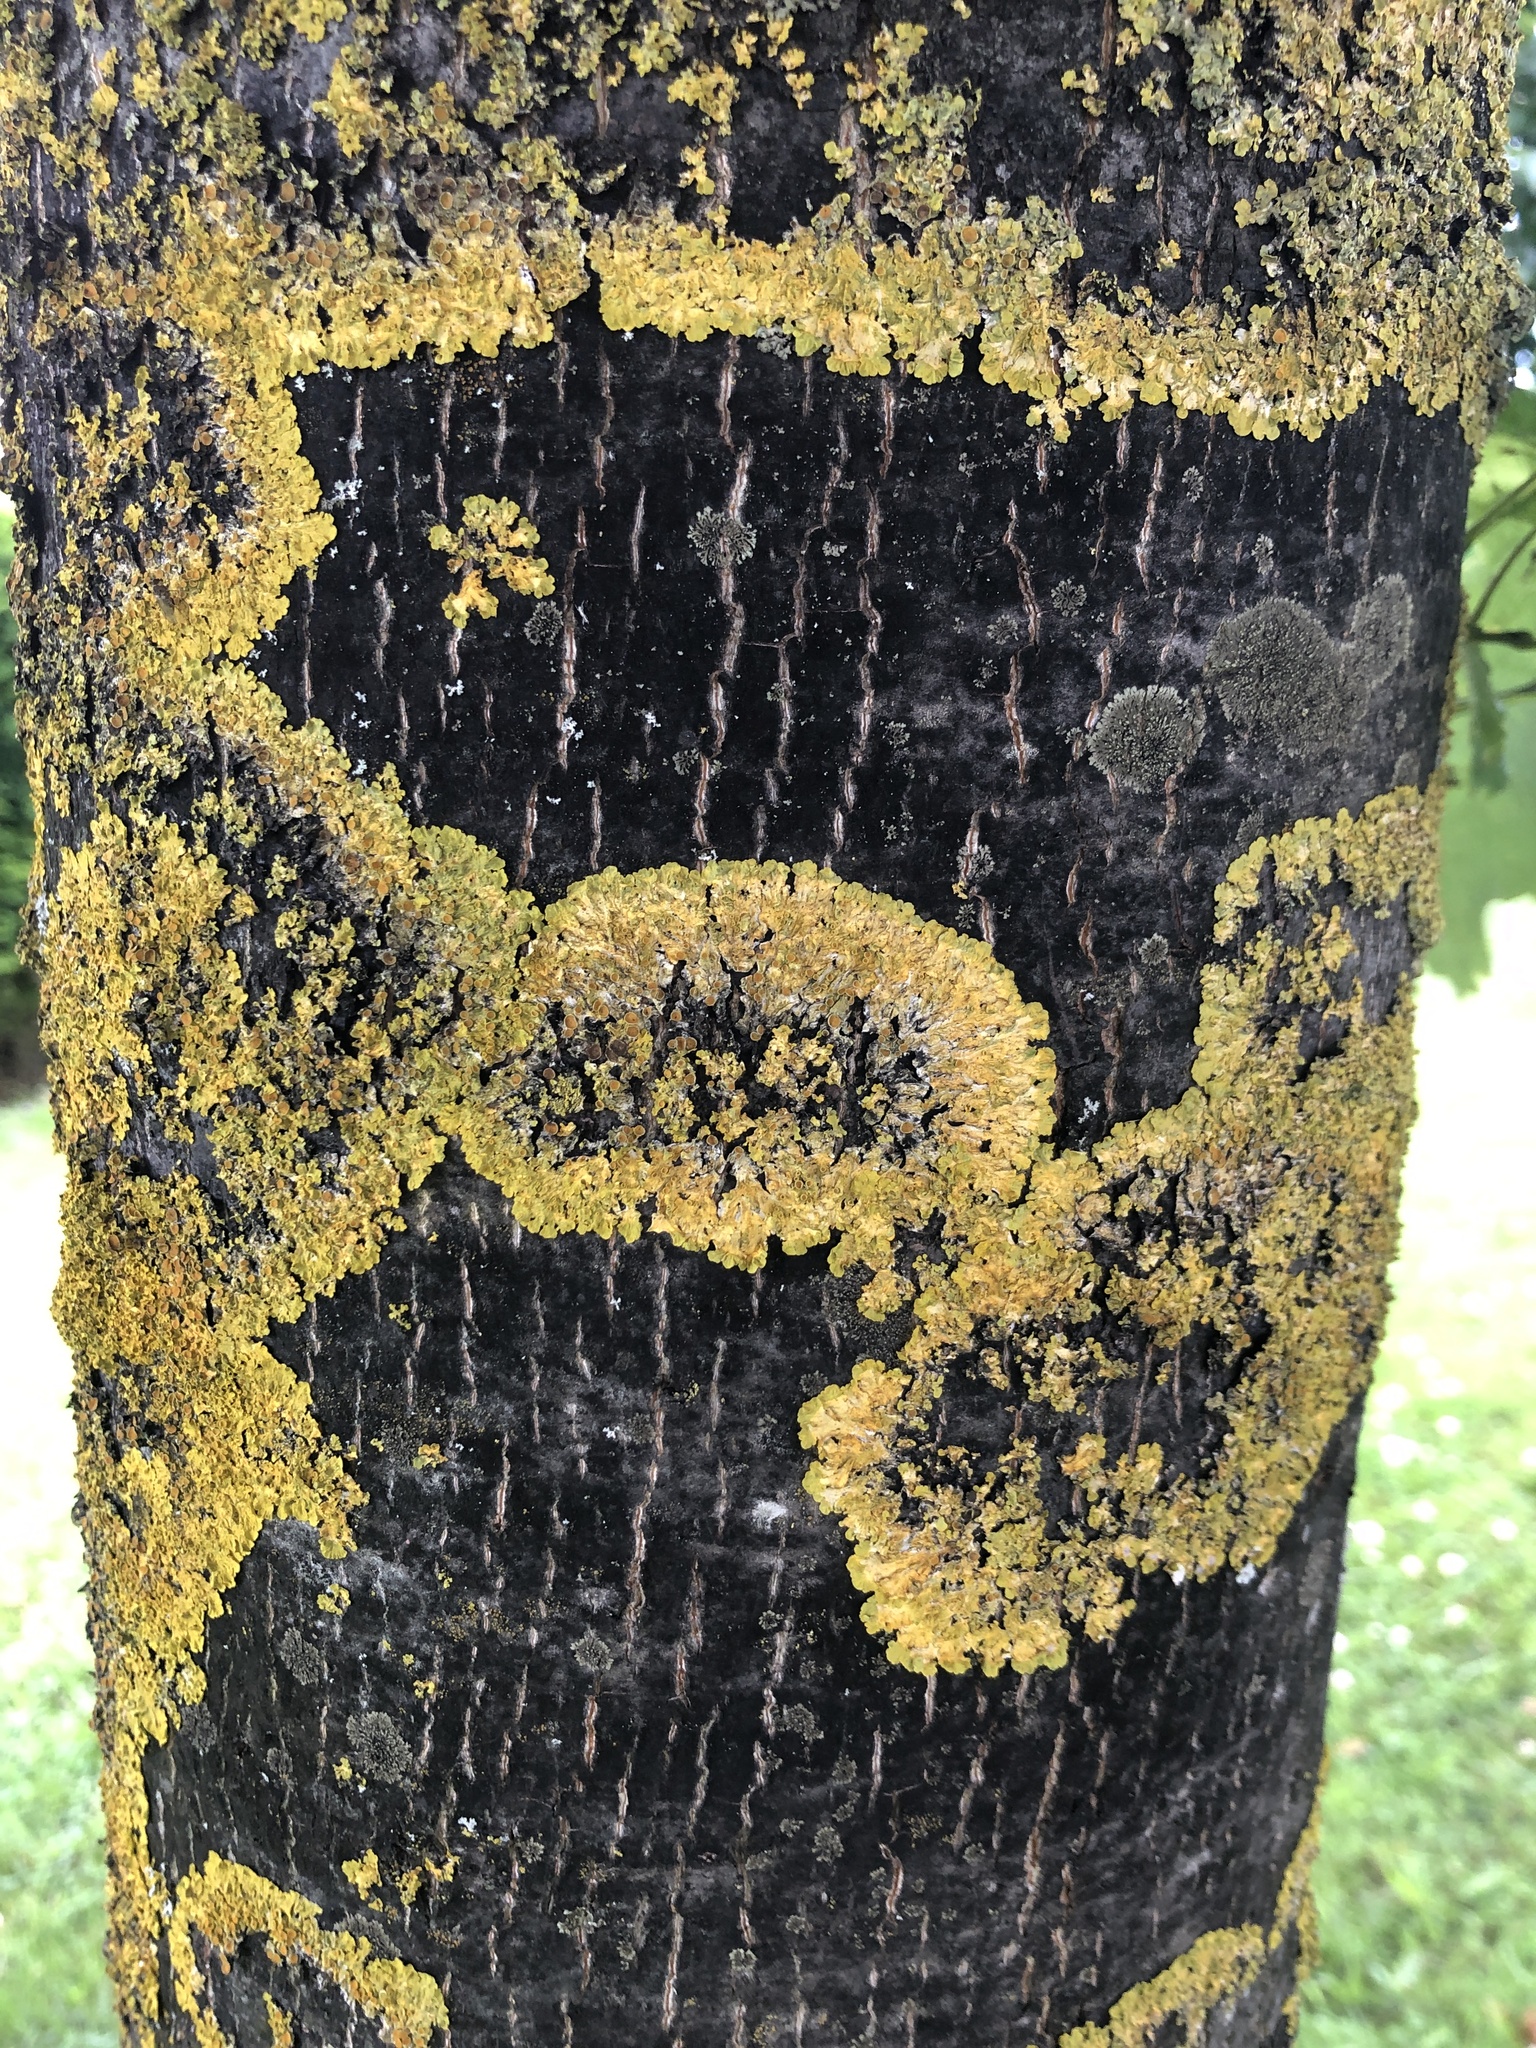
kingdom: Fungi
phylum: Ascomycota
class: Lecanoromycetes
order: Teloschistales
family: Teloschistaceae
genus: Xanthoria
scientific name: Xanthoria parietina
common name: Common orange lichen
